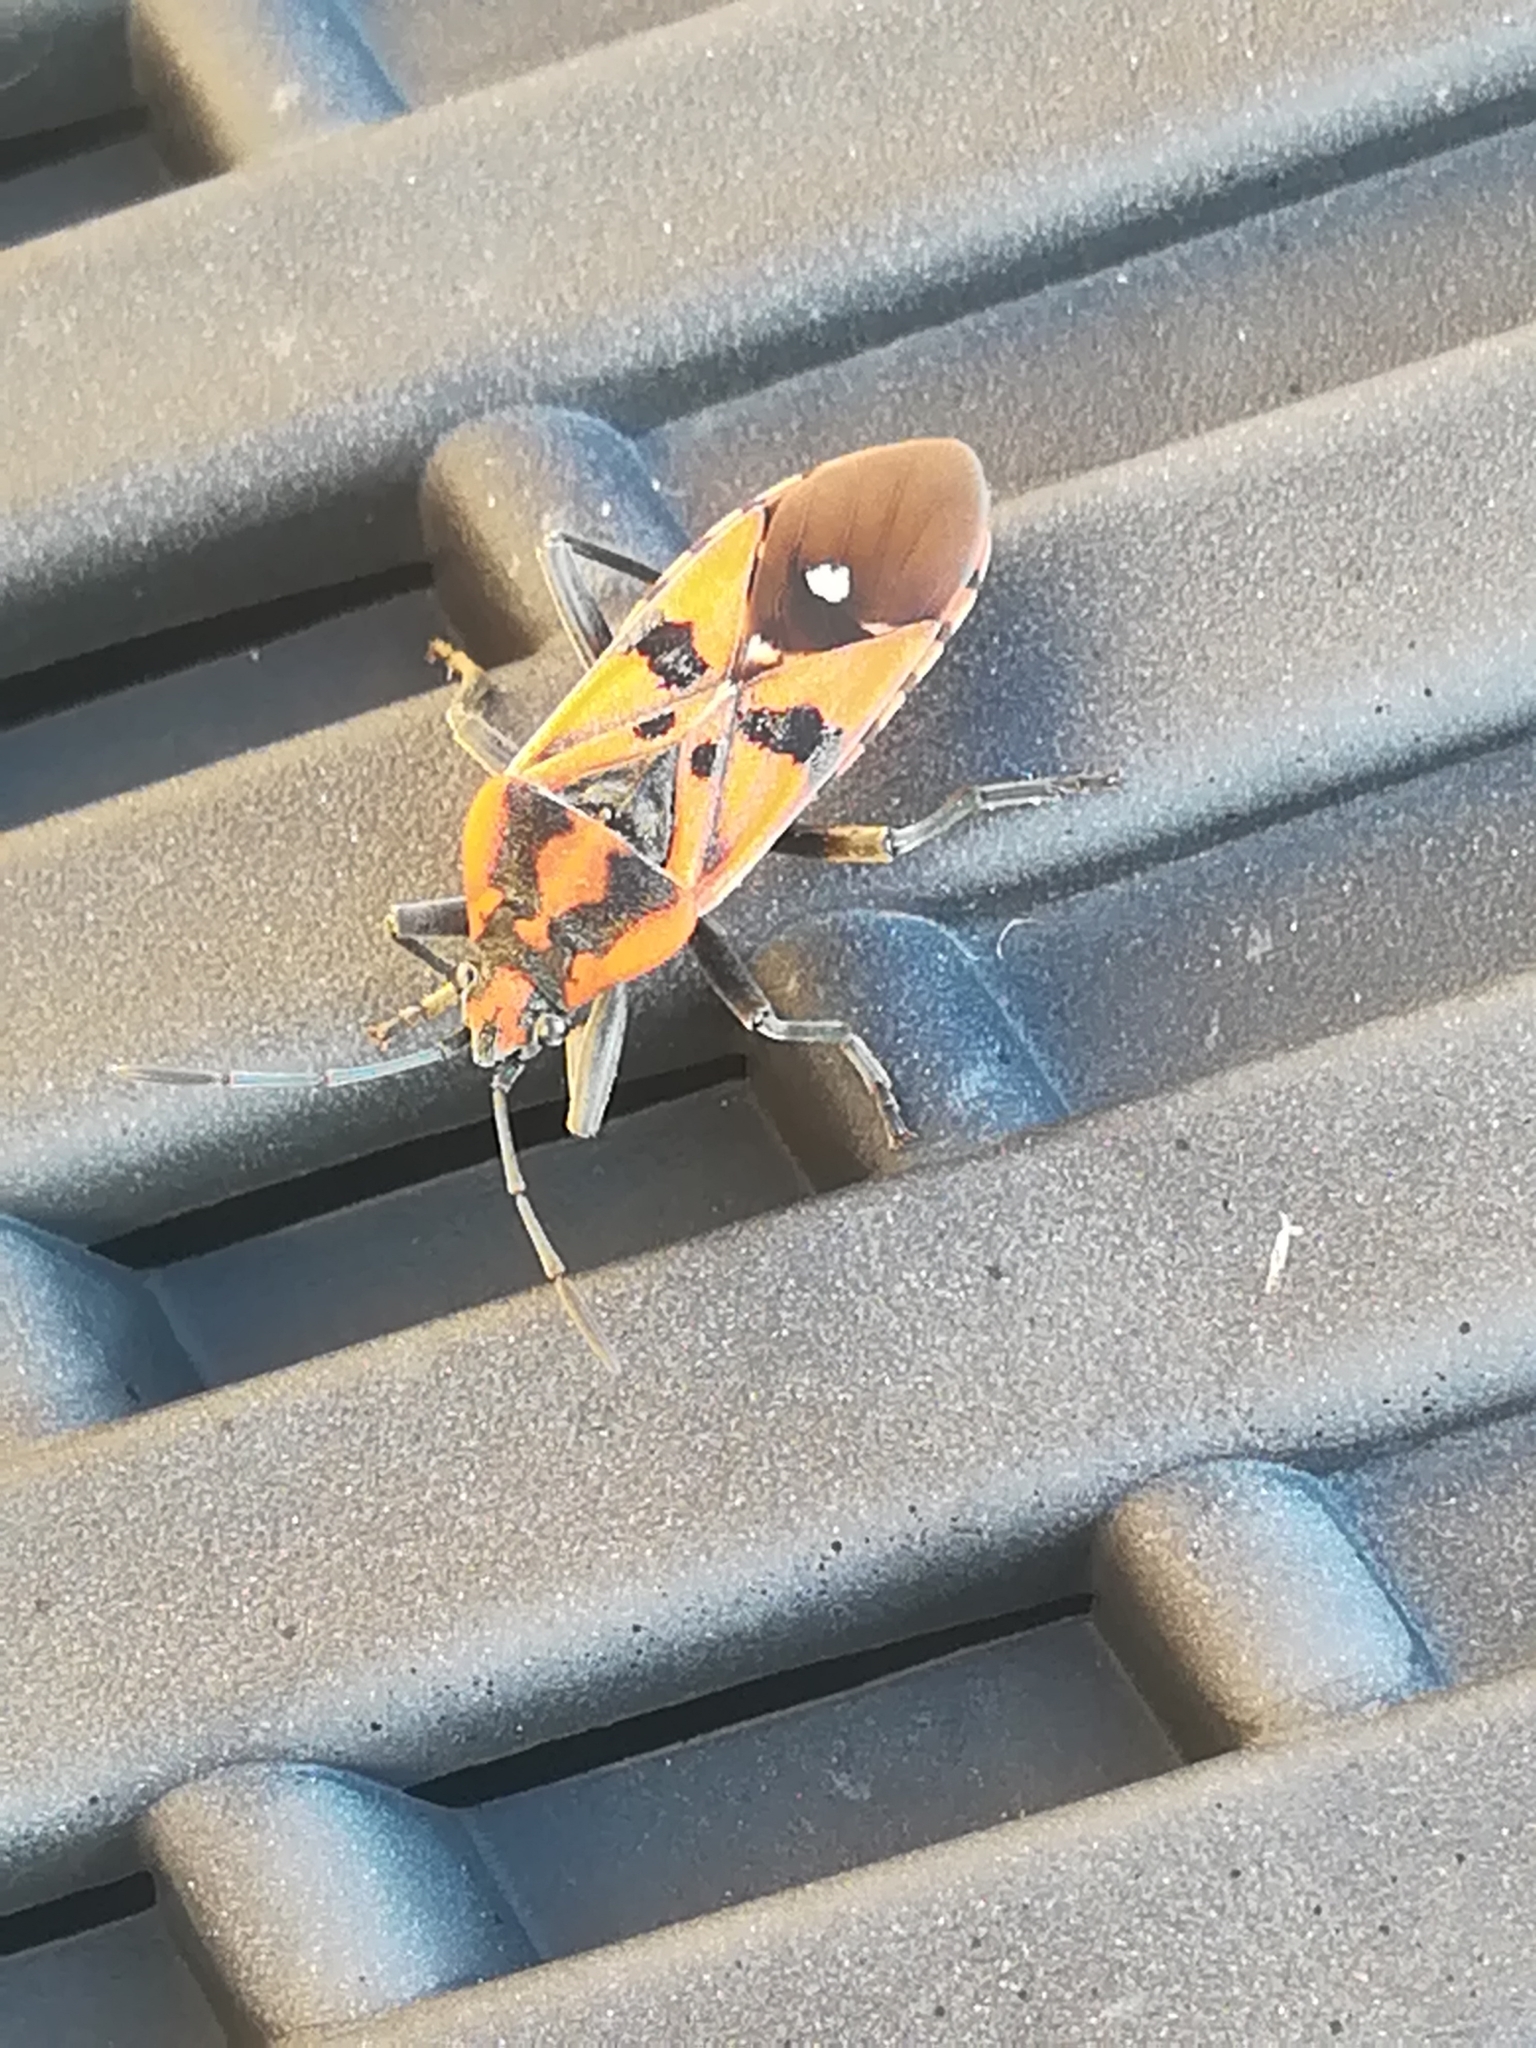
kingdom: Animalia
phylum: Arthropoda
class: Insecta
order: Hemiptera
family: Lygaeidae
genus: Spilostethus
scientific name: Spilostethus pandurus
